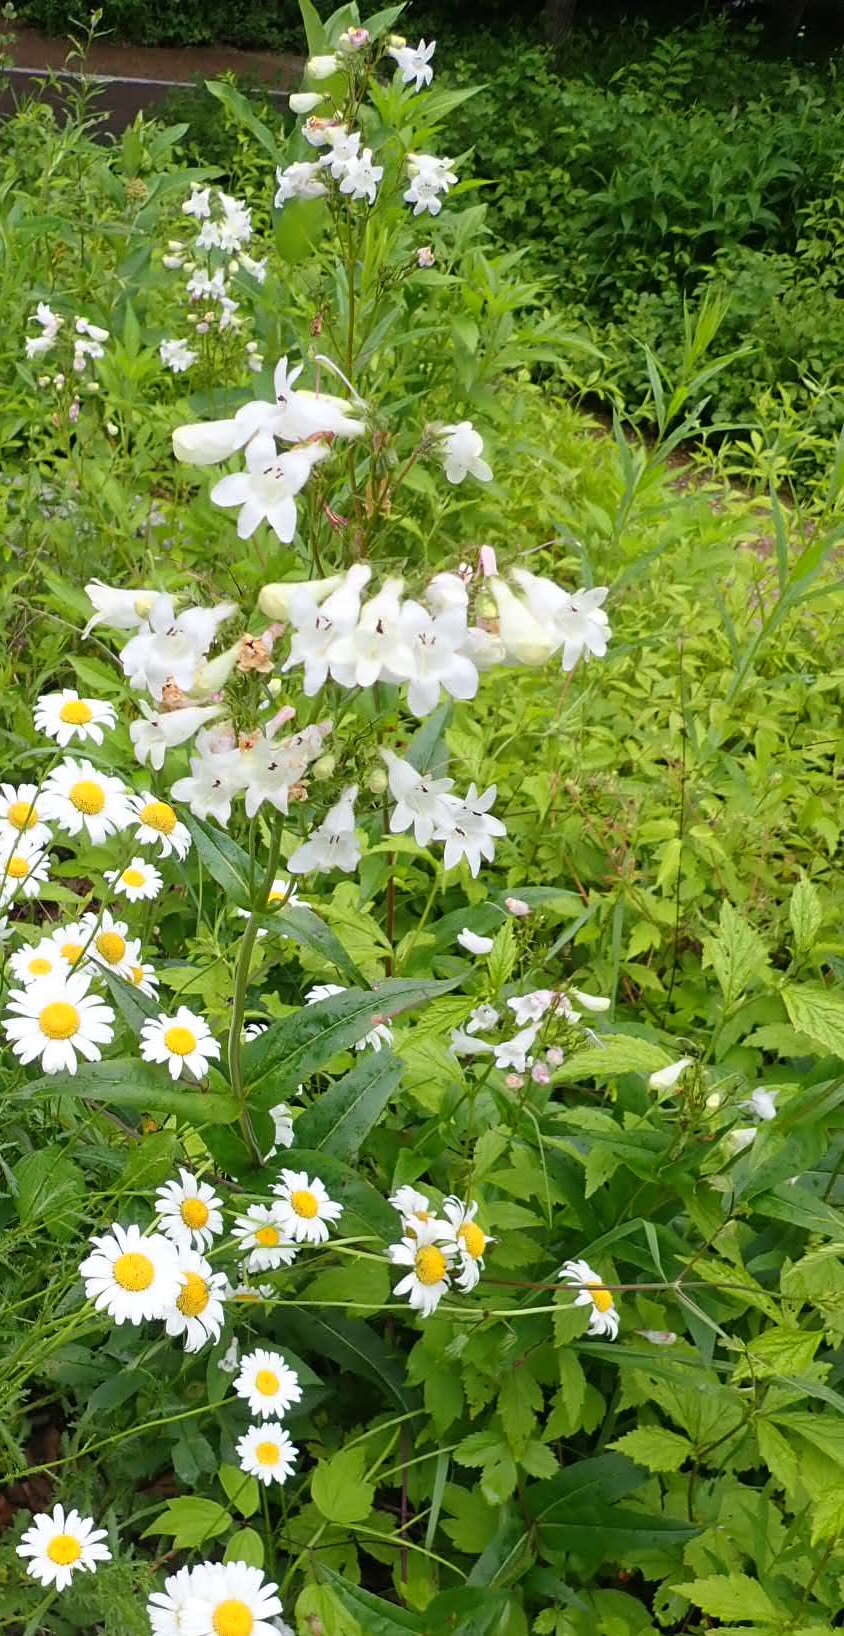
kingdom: Plantae
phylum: Tracheophyta
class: Magnoliopsida
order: Lamiales
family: Plantaginaceae
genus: Penstemon
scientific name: Penstemon digitalis
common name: Foxglove beardtongue
